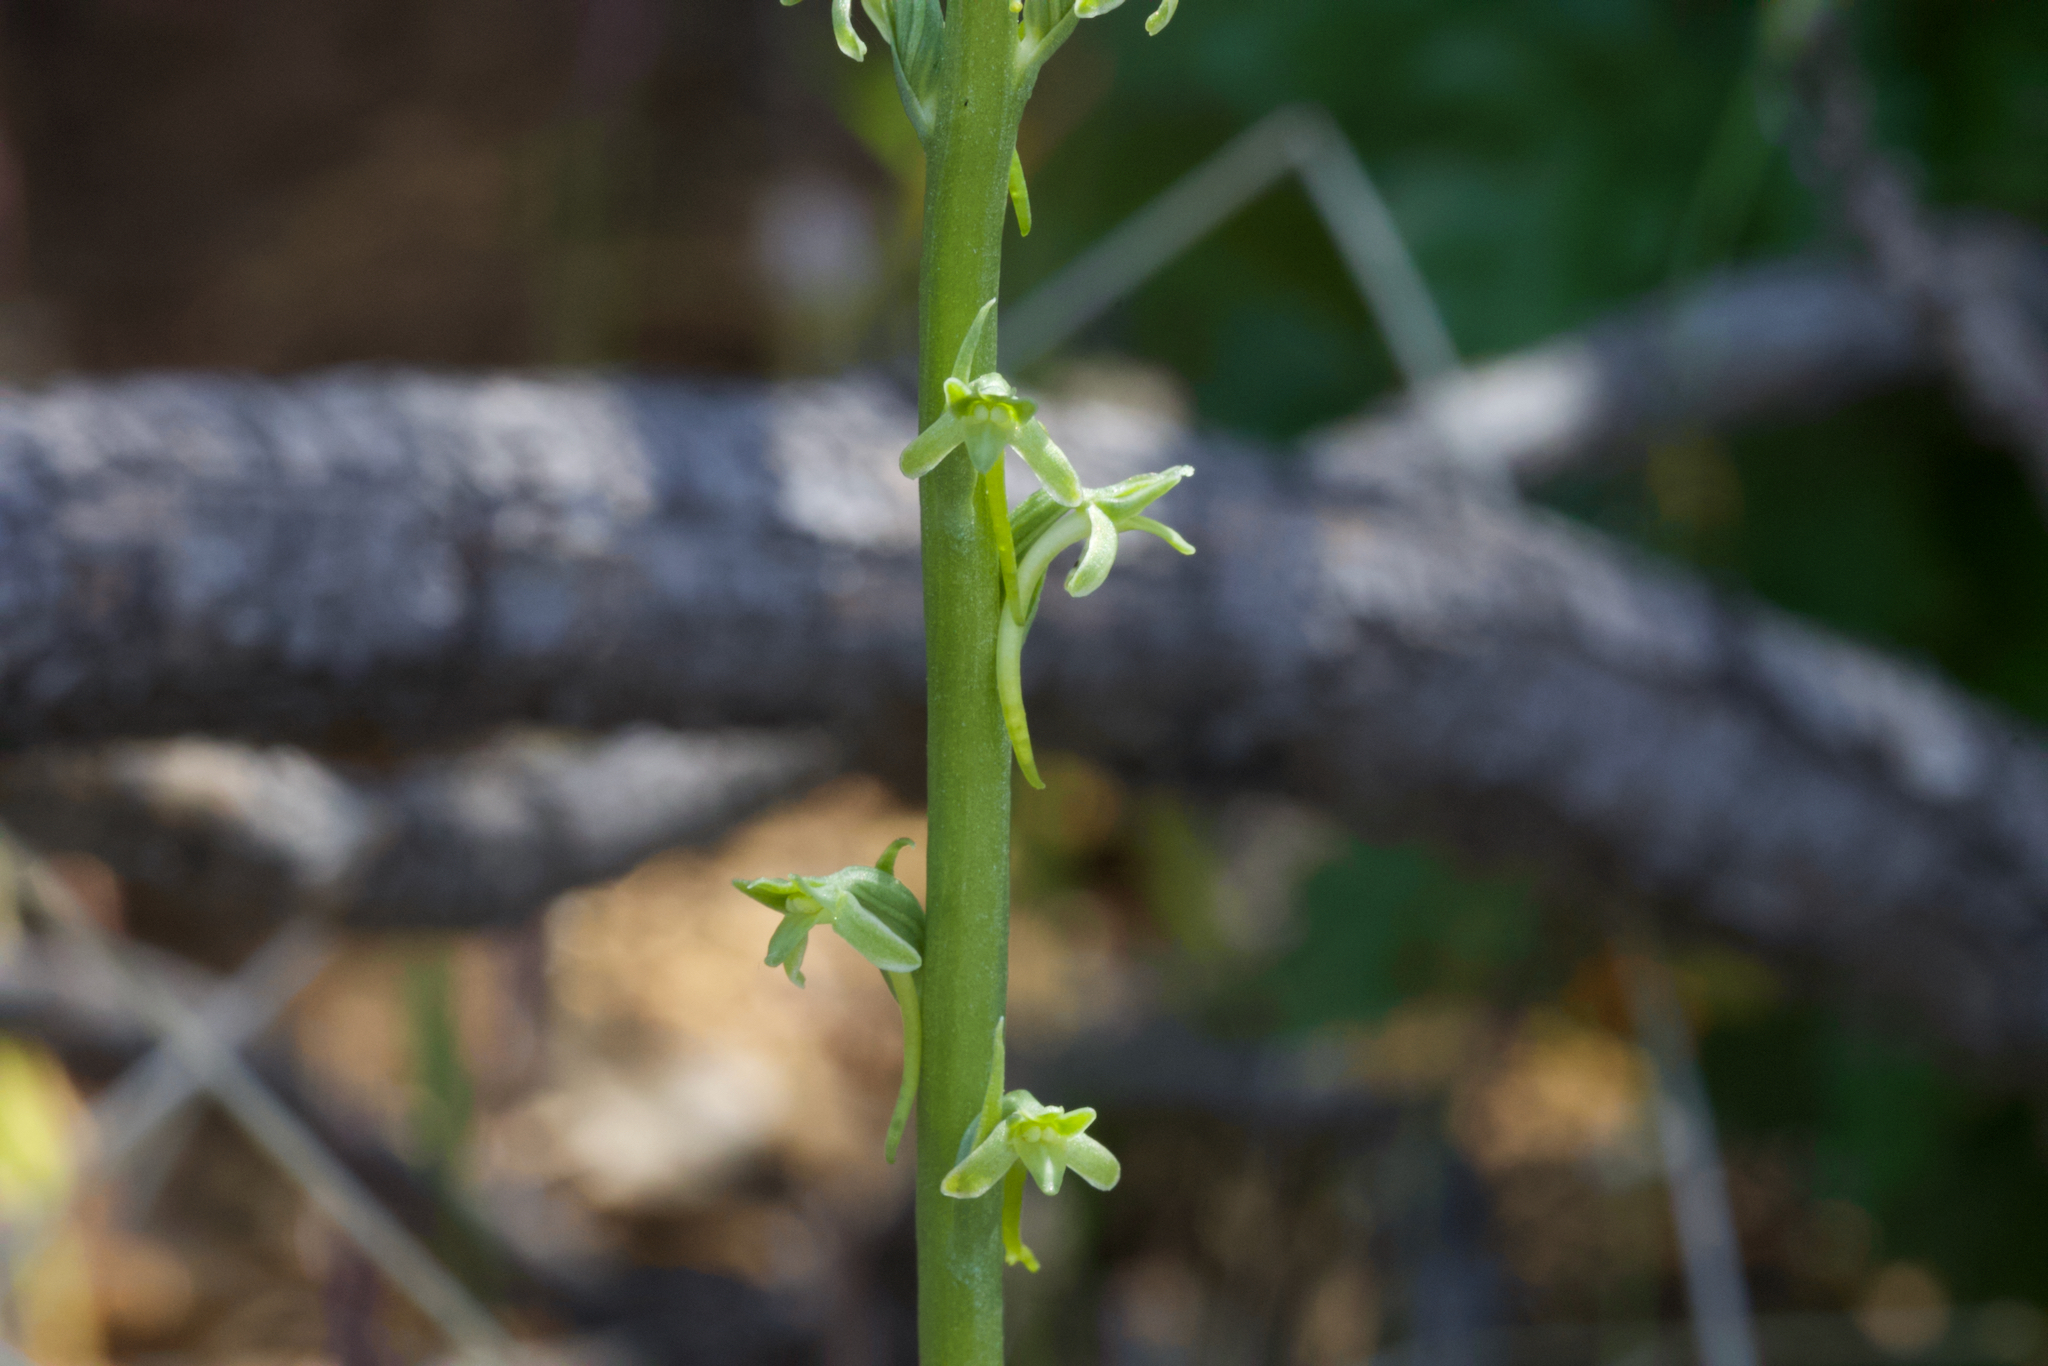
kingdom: Plantae
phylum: Tracheophyta
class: Liliopsida
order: Asparagales
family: Orchidaceae
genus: Platanthera
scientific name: Platanthera elongata
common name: Dense-flowered rein orchid
